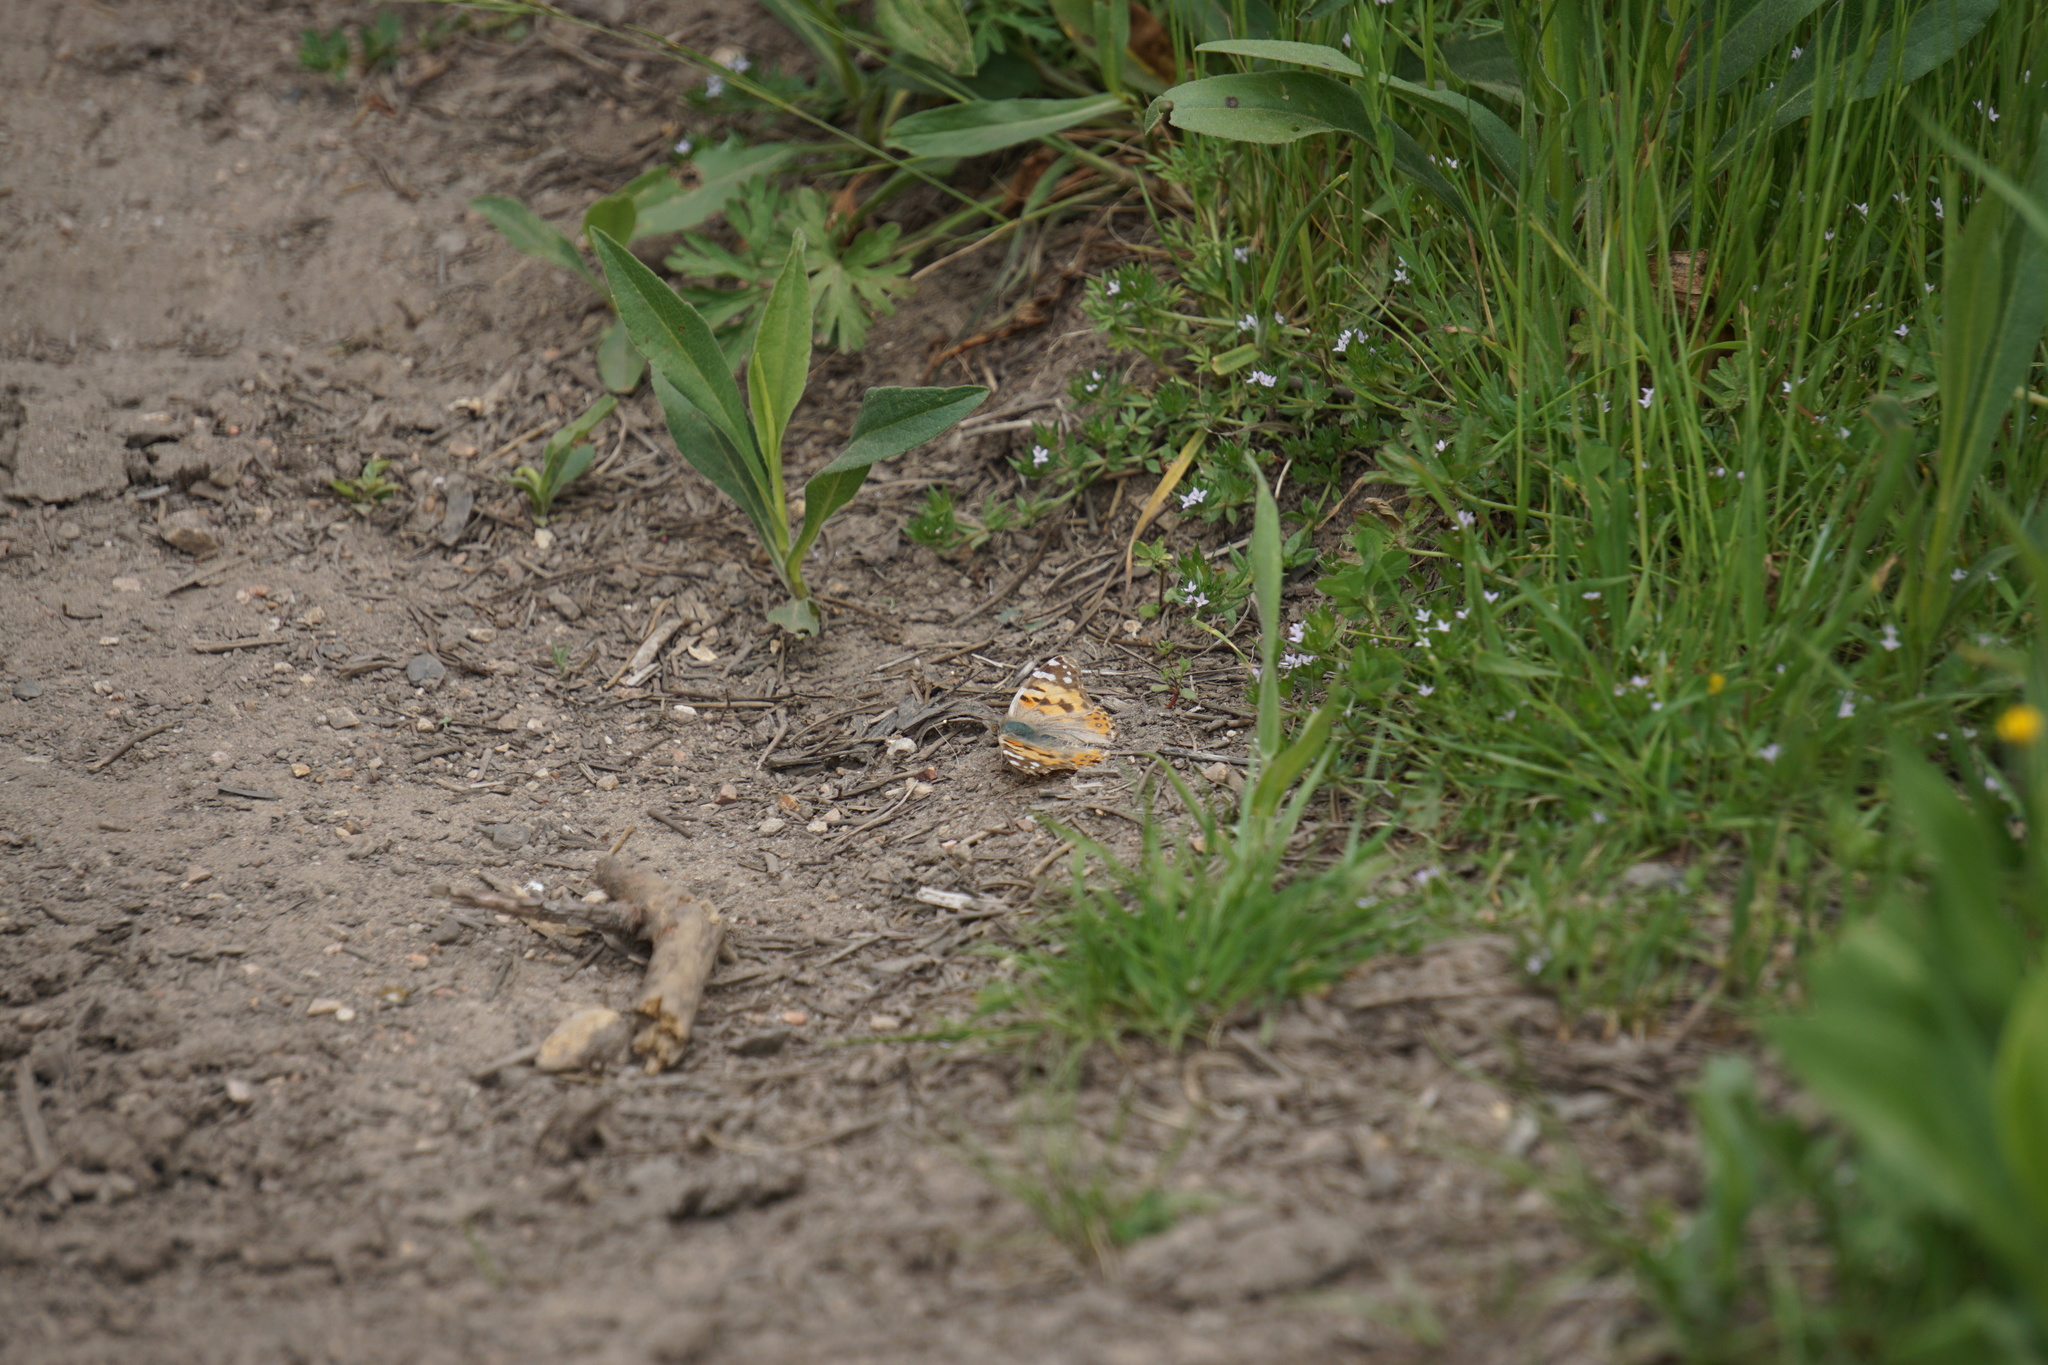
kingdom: Animalia
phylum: Arthropoda
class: Insecta
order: Lepidoptera
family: Nymphalidae
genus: Vanessa
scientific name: Vanessa cardui
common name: Painted lady
